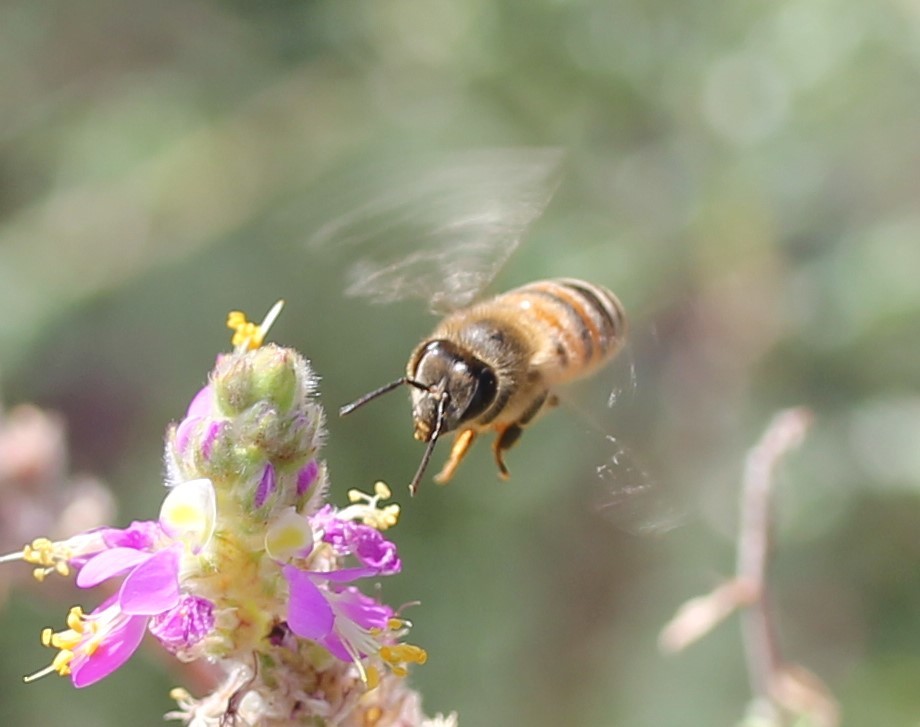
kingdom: Animalia
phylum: Arthropoda
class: Insecta
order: Hymenoptera
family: Apidae
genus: Apis
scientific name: Apis mellifera
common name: Honey bee
